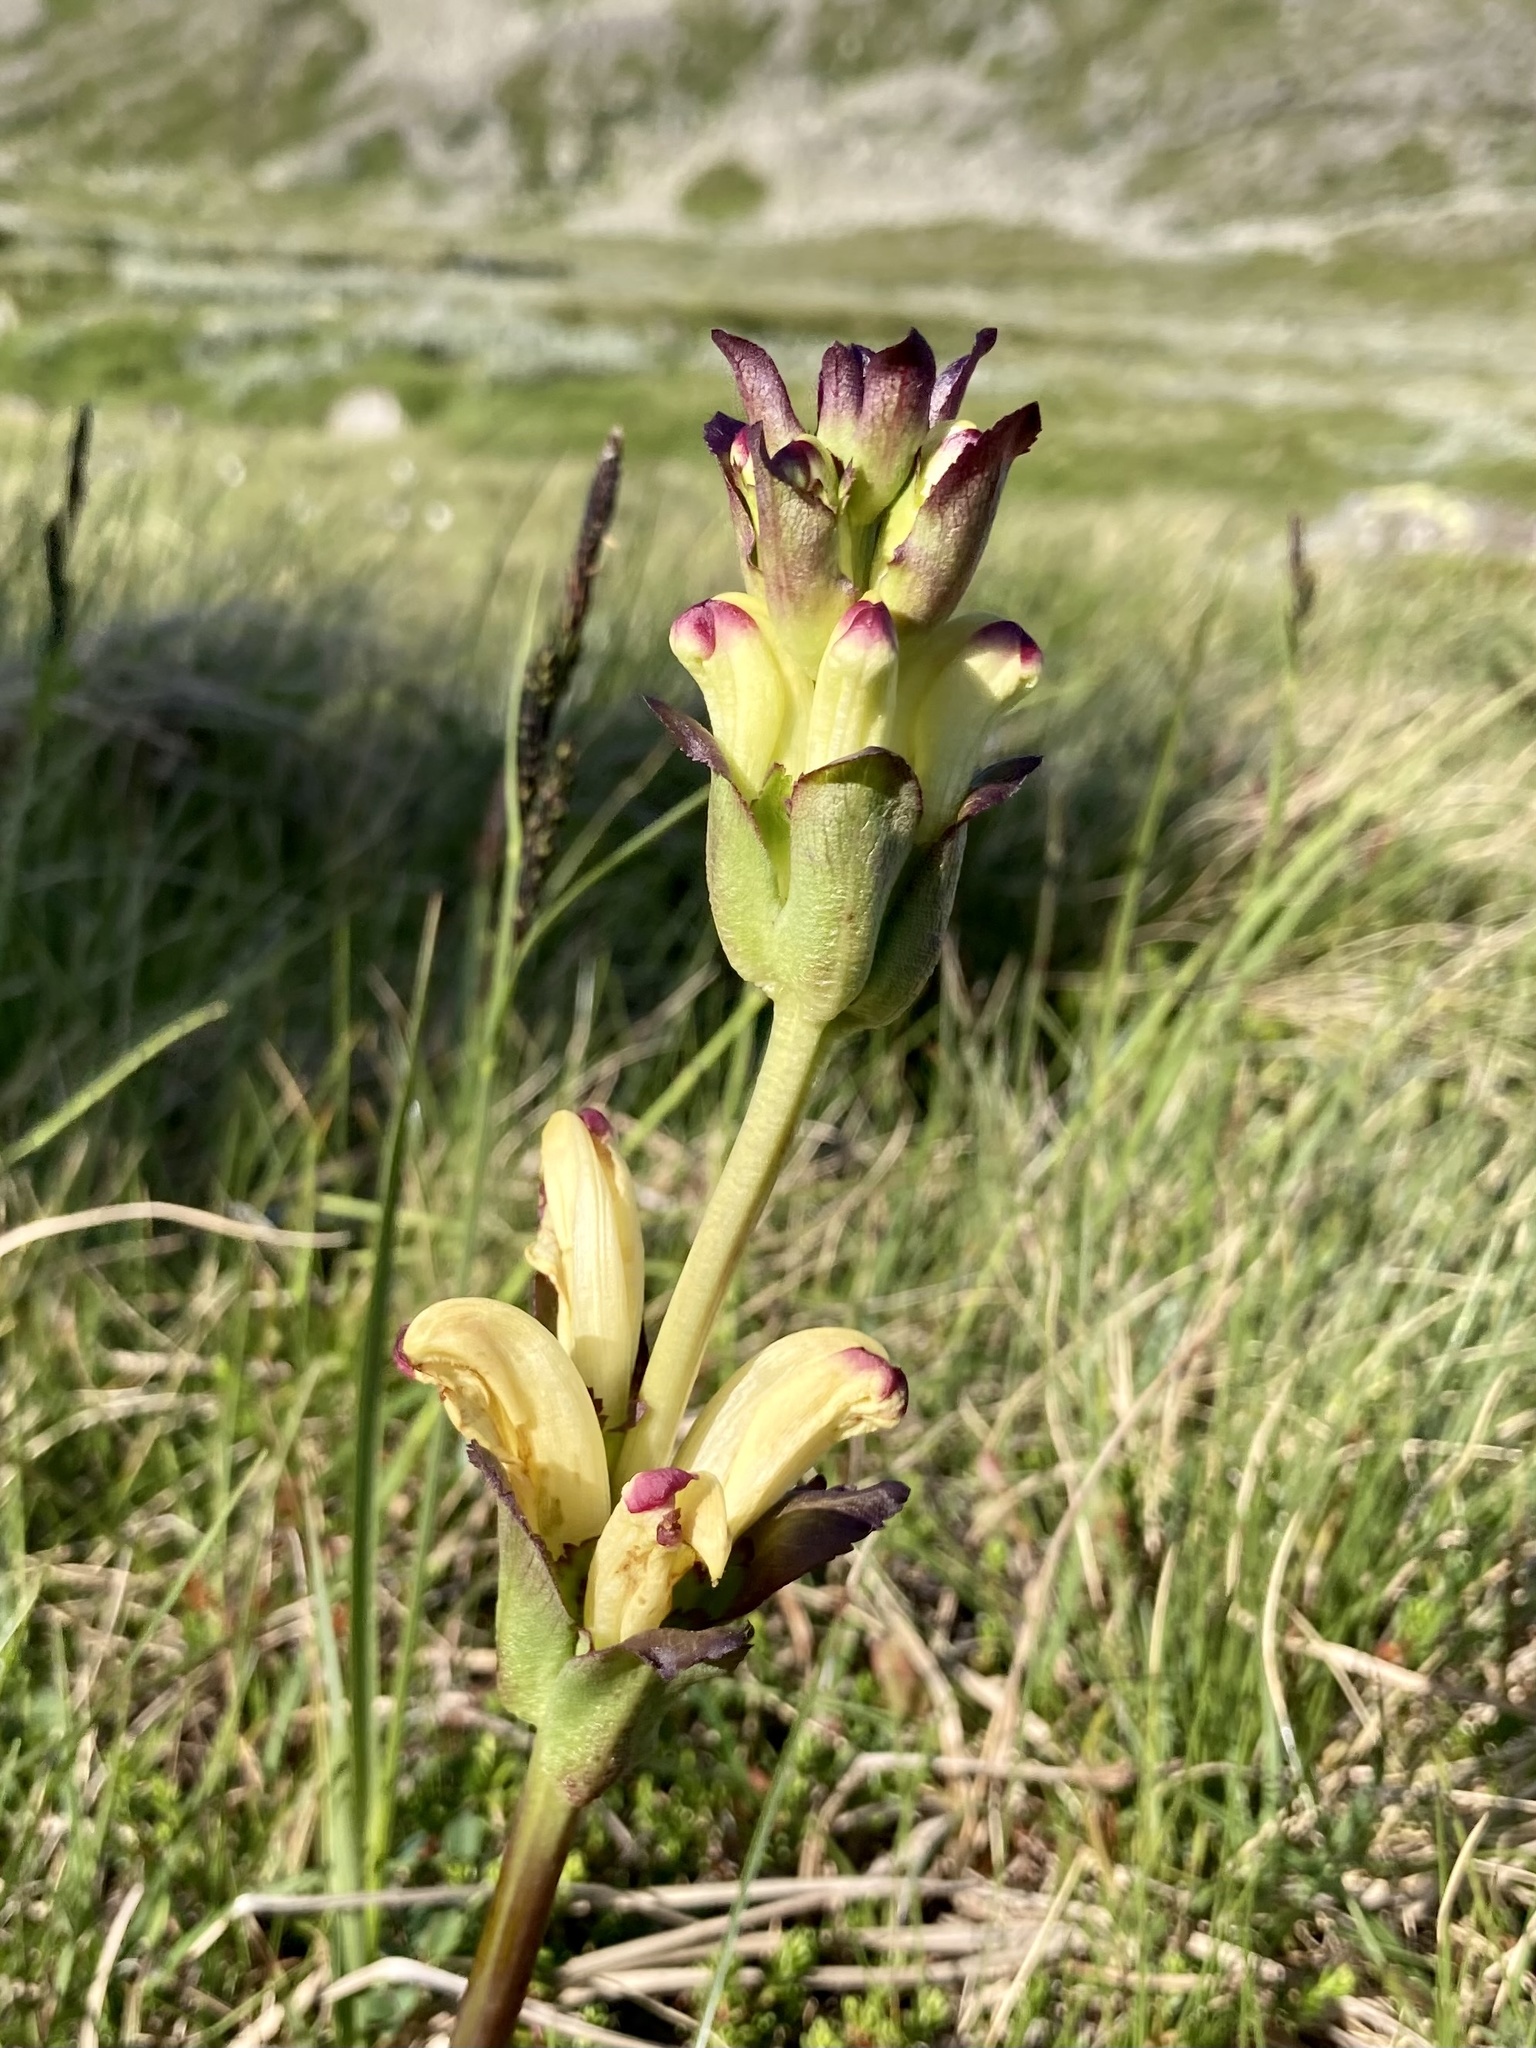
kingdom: Plantae
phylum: Tracheophyta
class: Magnoliopsida
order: Lamiales
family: Orobanchaceae
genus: Pedicularis
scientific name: Pedicularis sceptrum-carolinum
